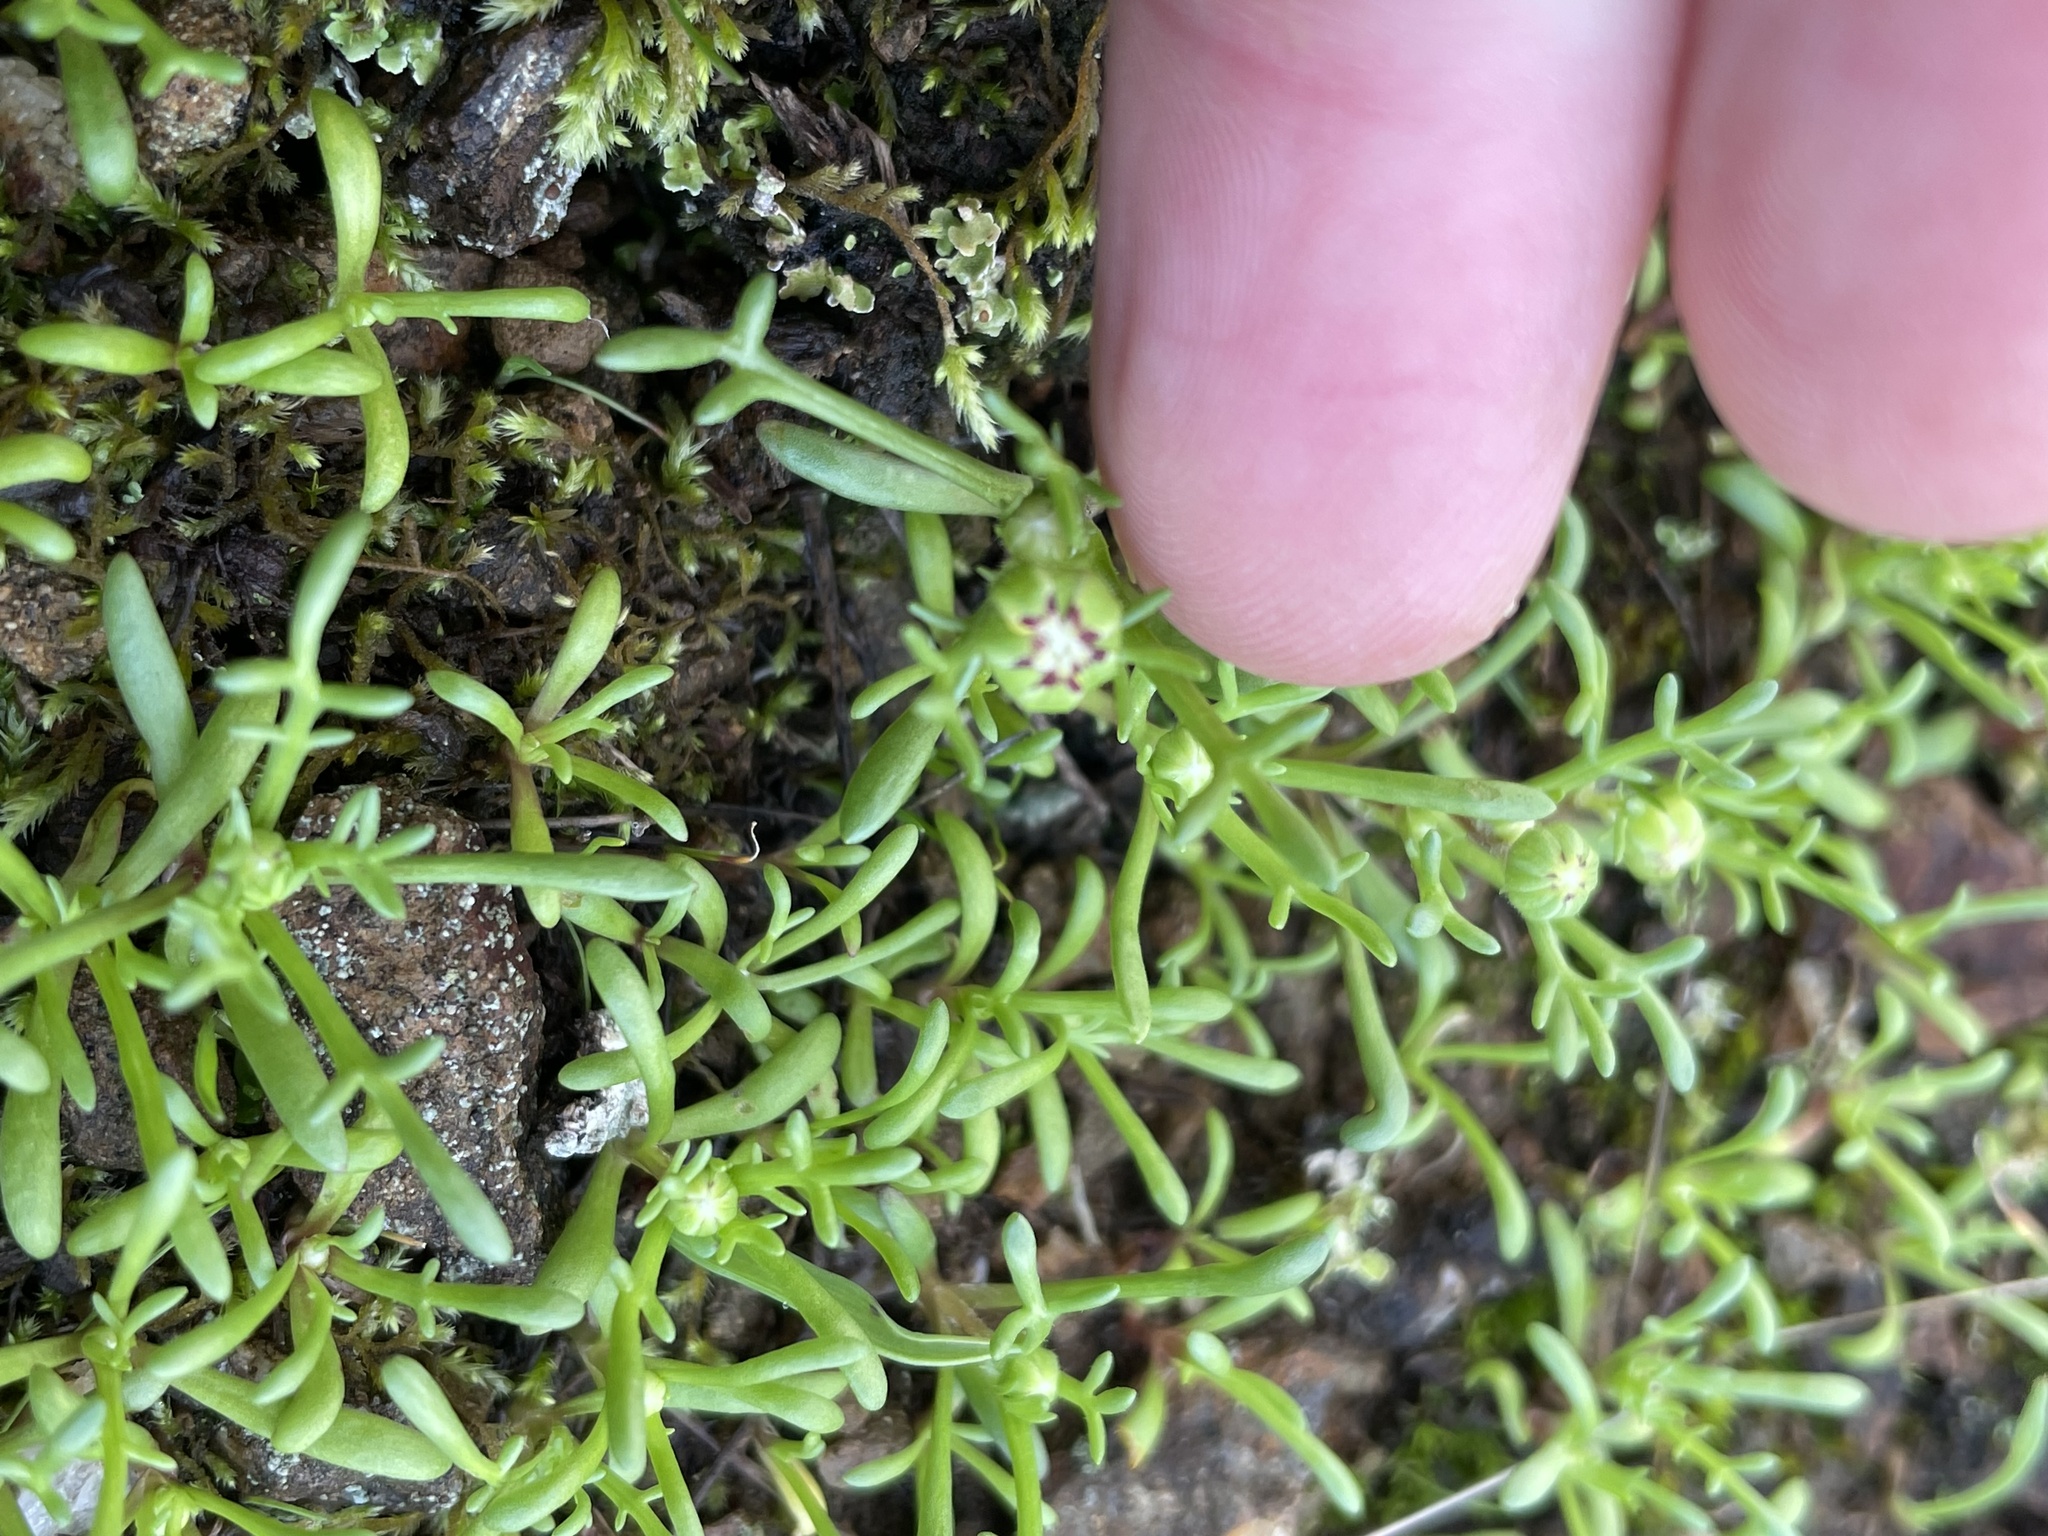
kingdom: Plantae
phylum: Tracheophyta
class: Magnoliopsida
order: Asterales
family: Asteraceae
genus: Blennosperma
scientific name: Blennosperma nanum
